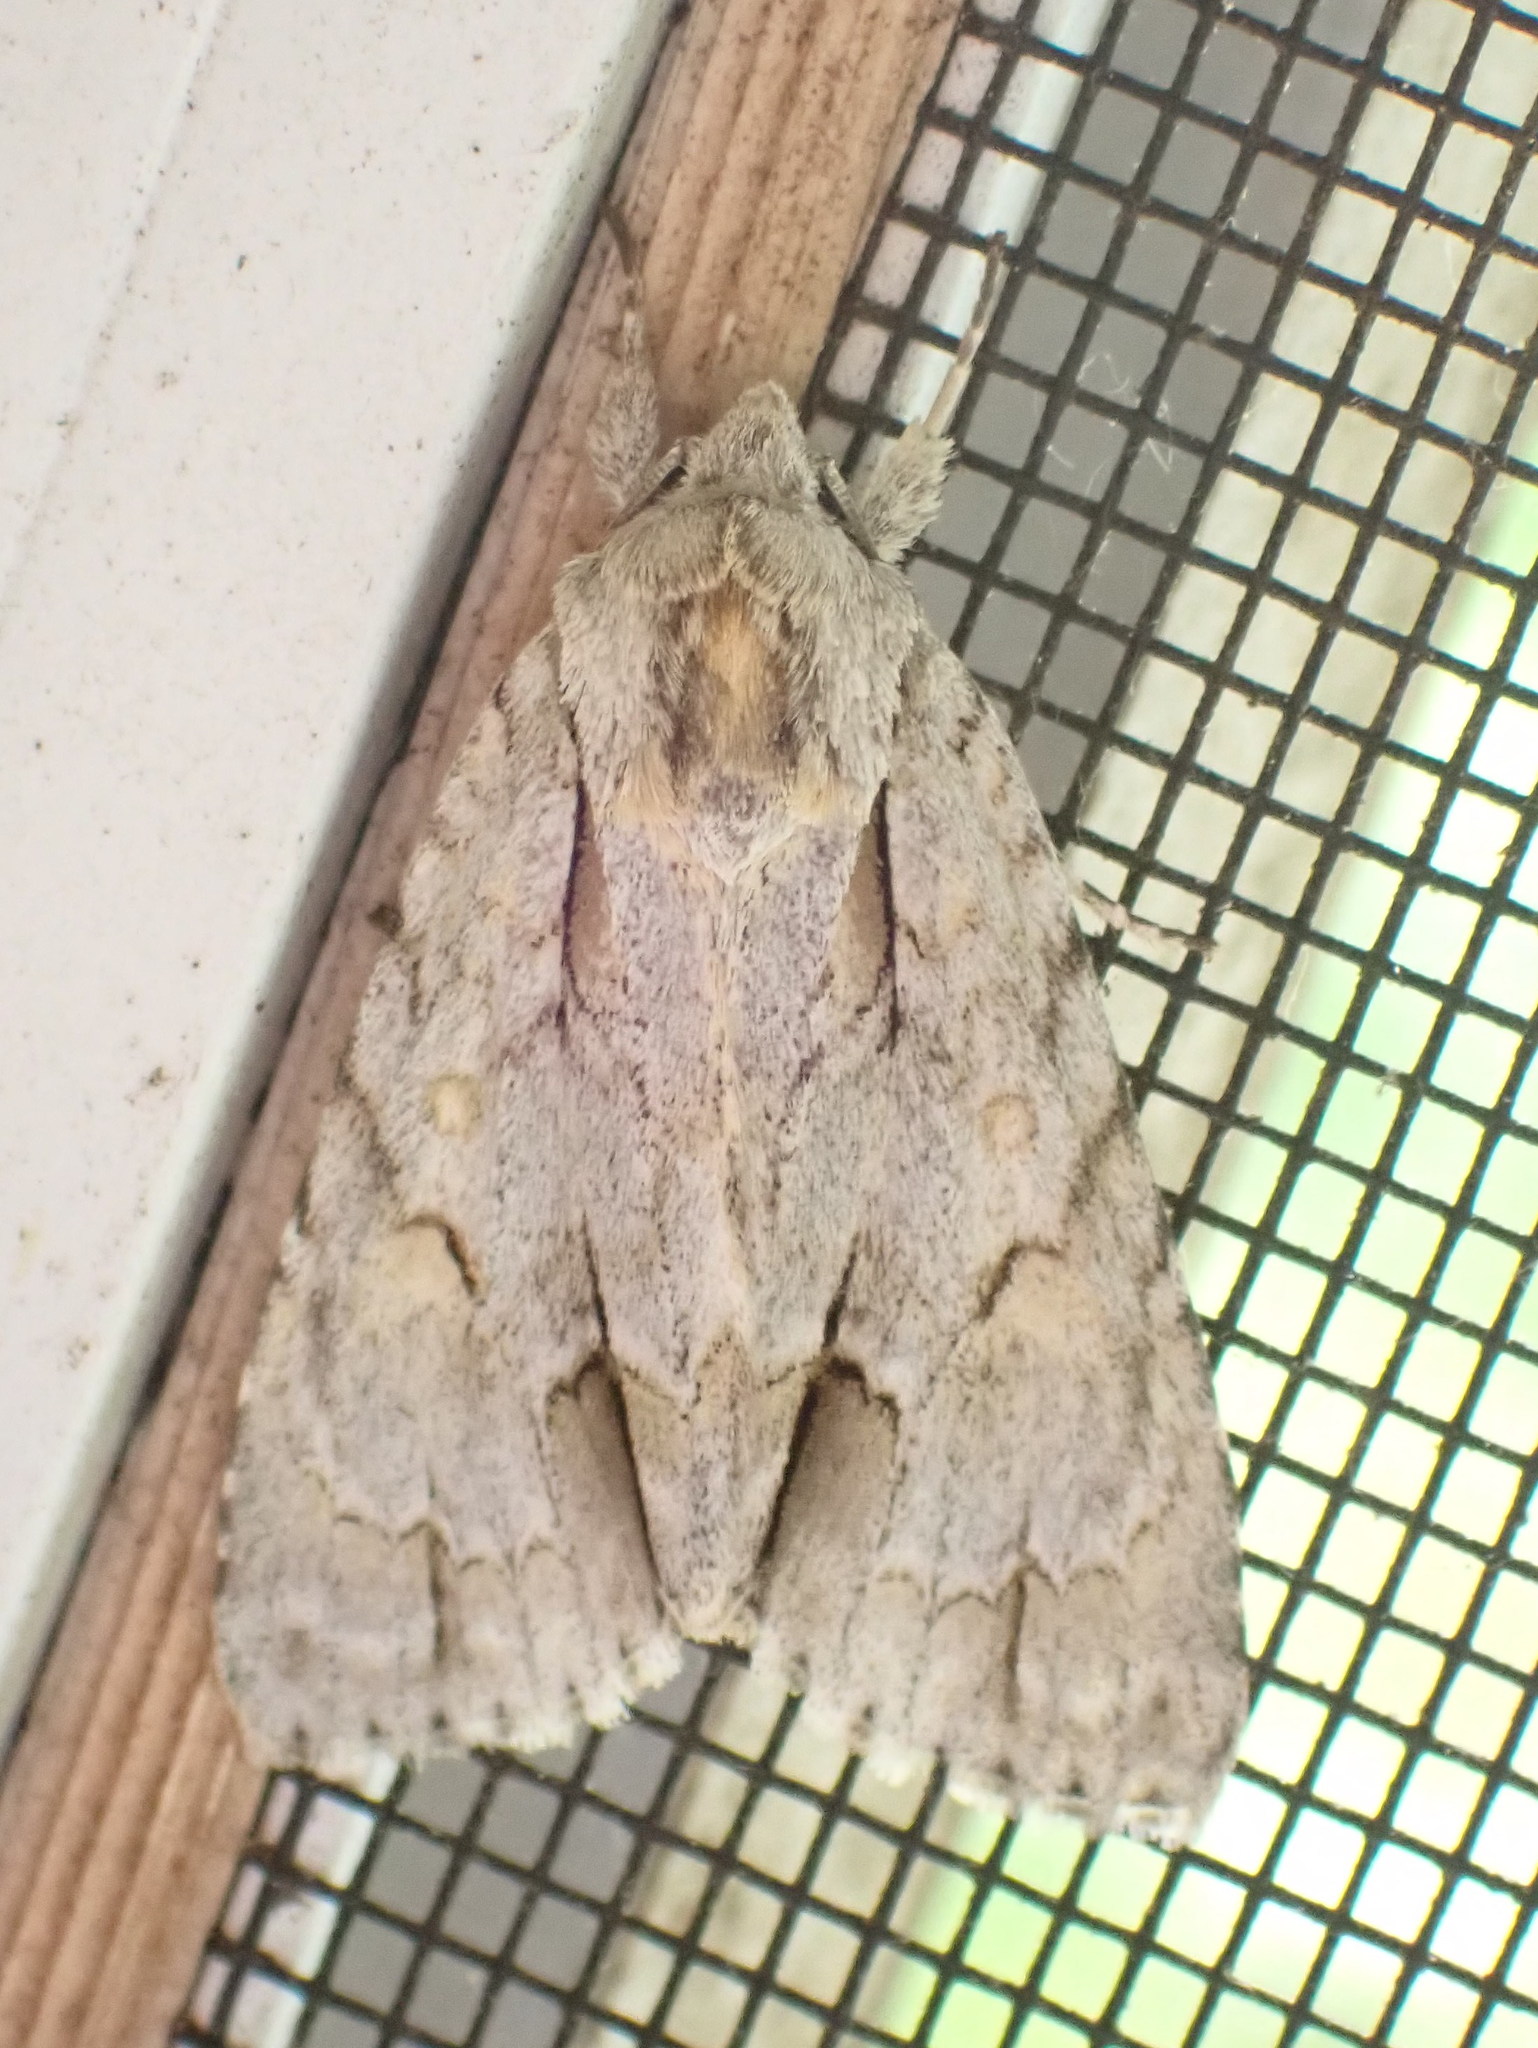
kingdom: Animalia
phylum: Arthropoda
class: Insecta
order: Lepidoptera
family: Noctuidae
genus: Acronicta
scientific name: Acronicta morula
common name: Ochre dagger
